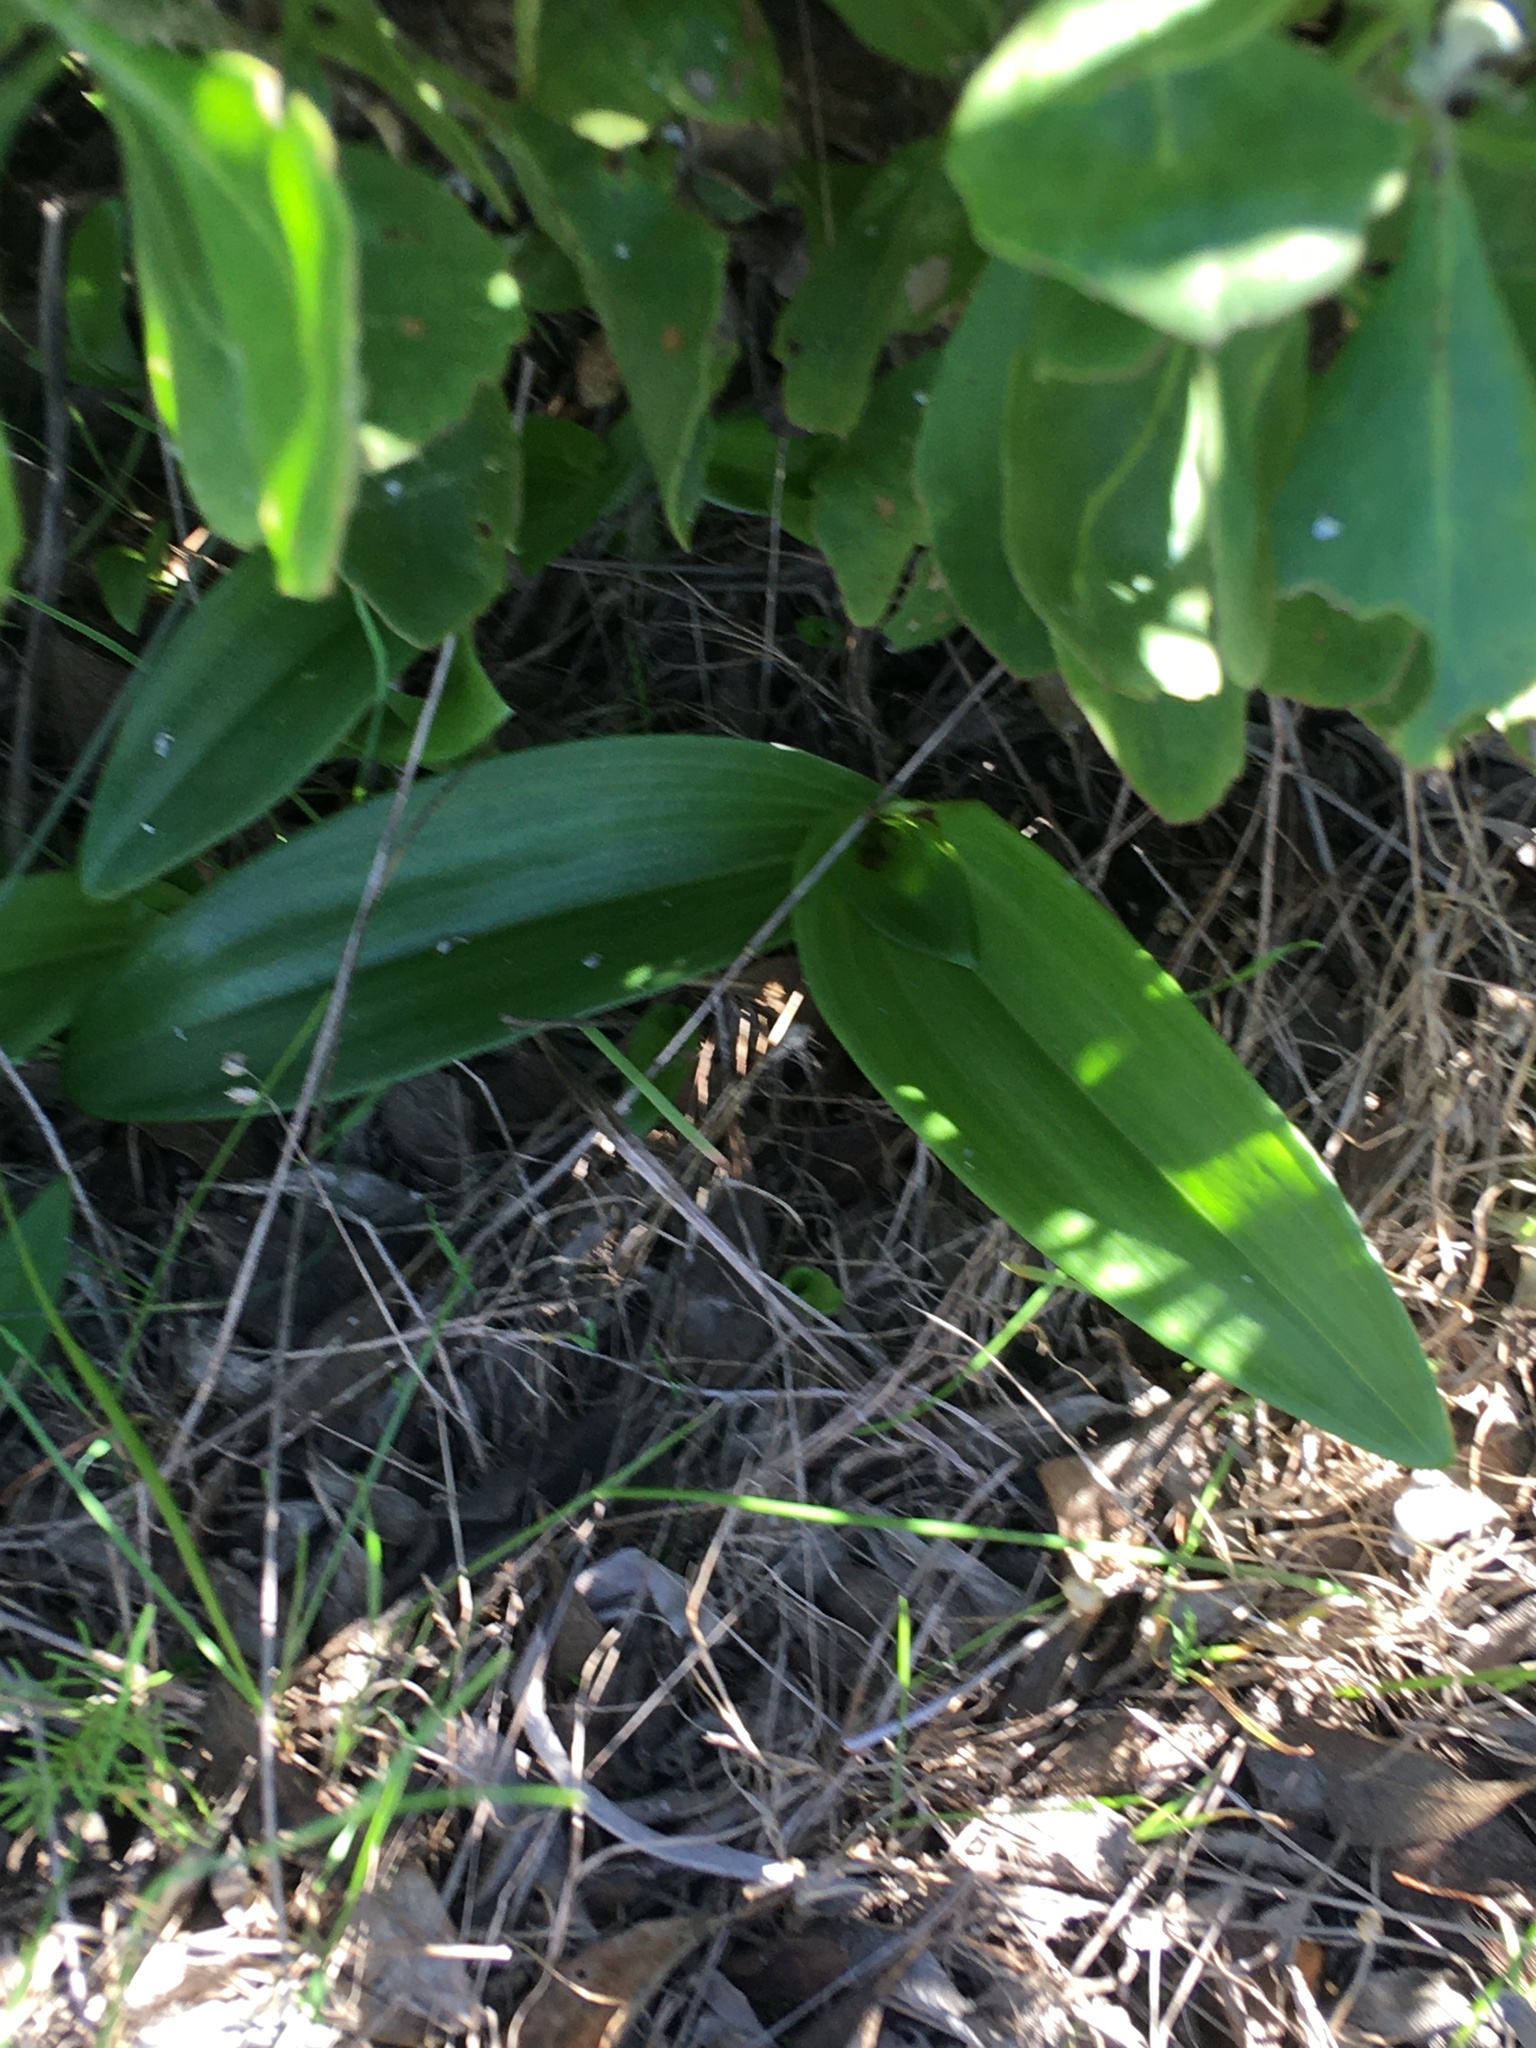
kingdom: Plantae
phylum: Tracheophyta
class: Liliopsida
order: Asparagales
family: Orchidaceae
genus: Satyrium
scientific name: Satyrium odorum
